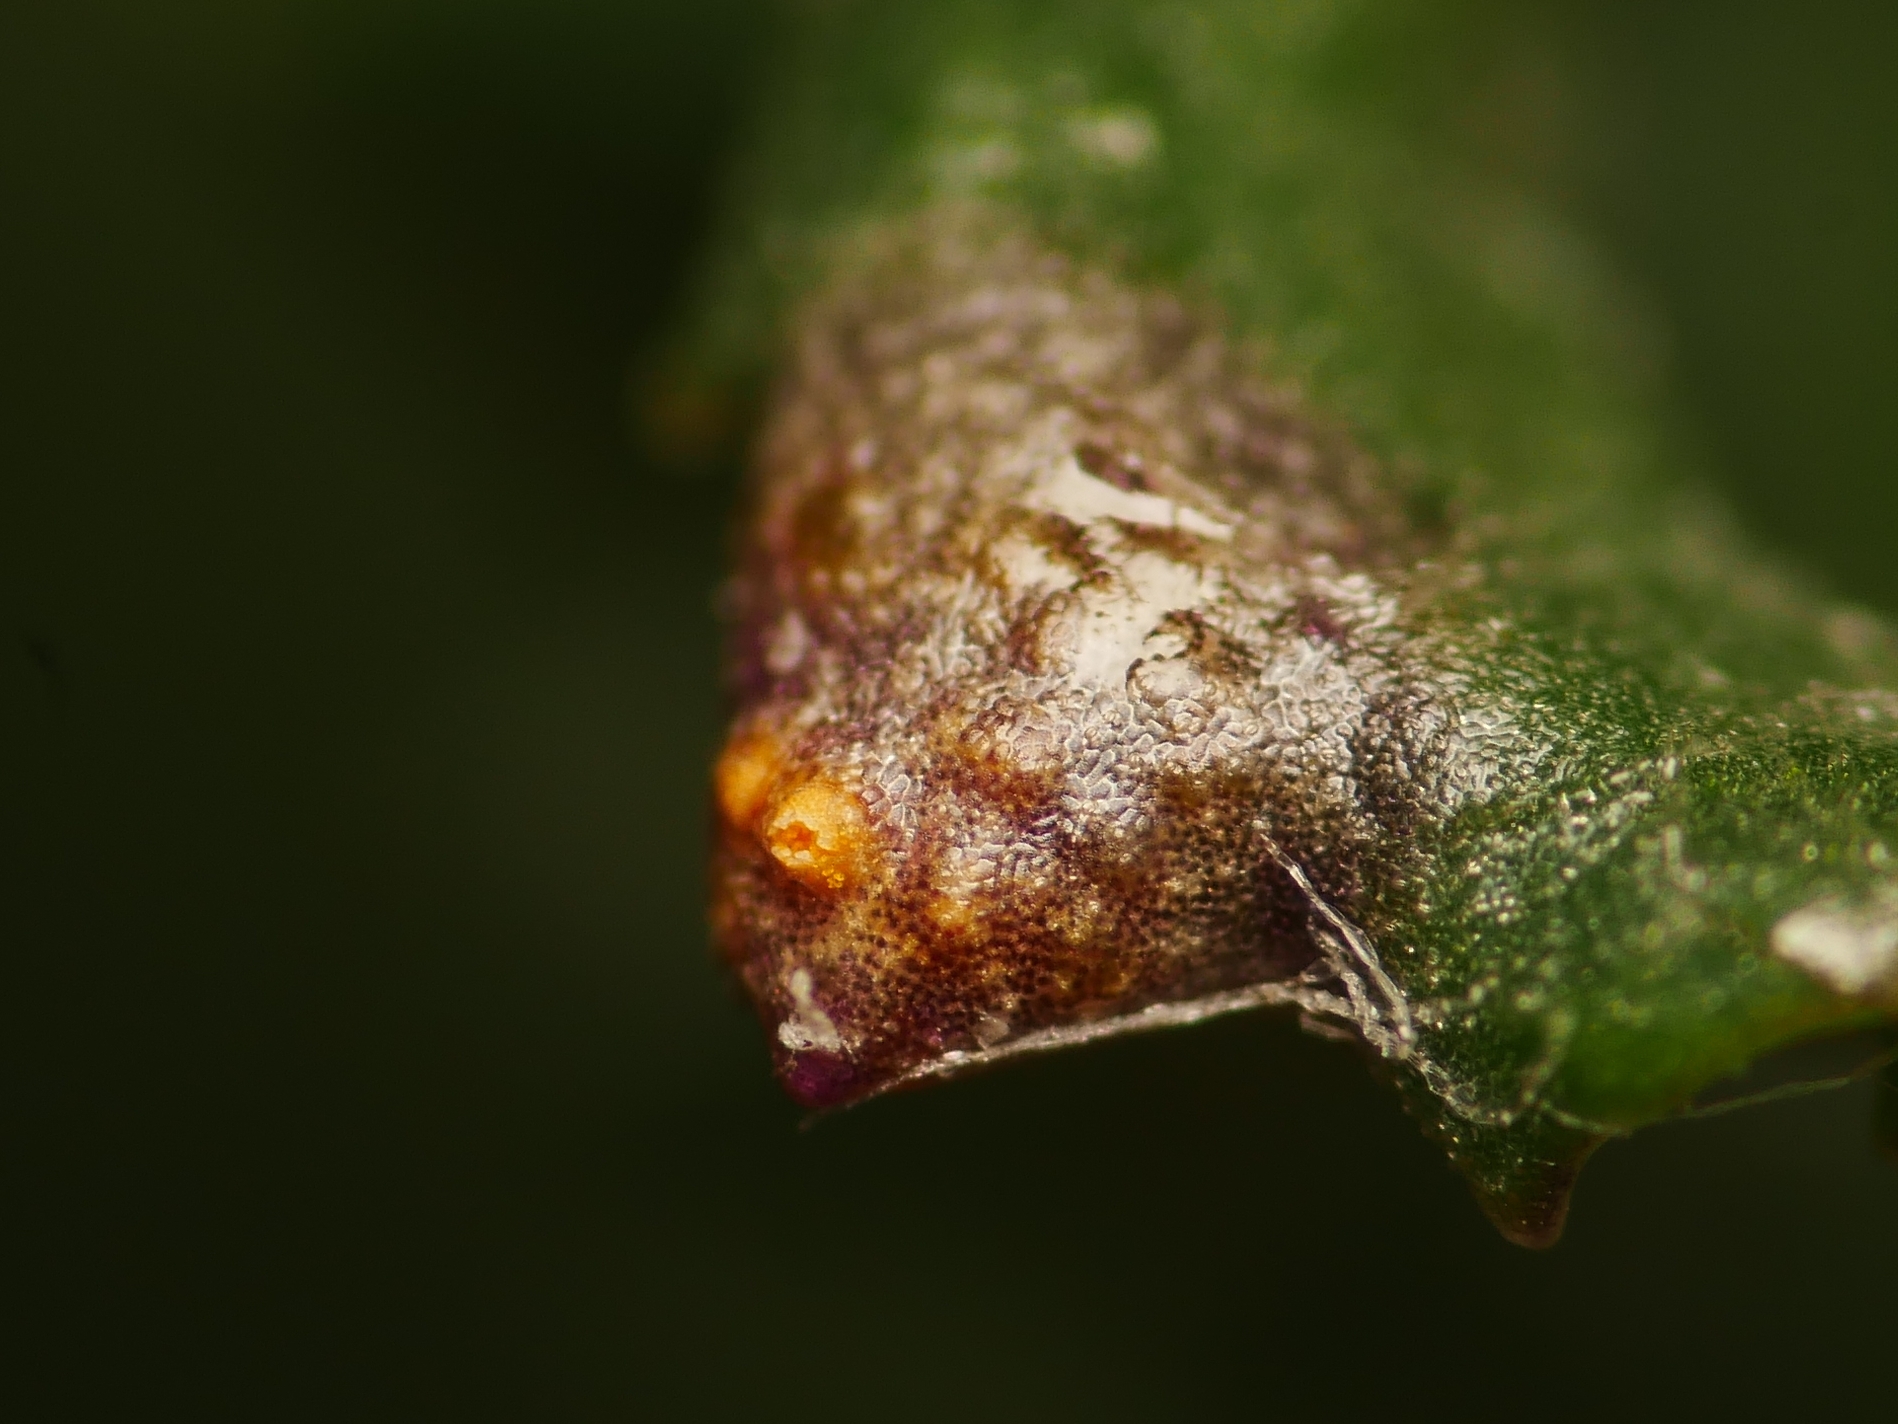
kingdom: Fungi
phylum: Basidiomycota
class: Pucciniomycetes
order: Pucciniales
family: Pucciniaceae
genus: Puccinia
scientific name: Puccinia lagenophorae
